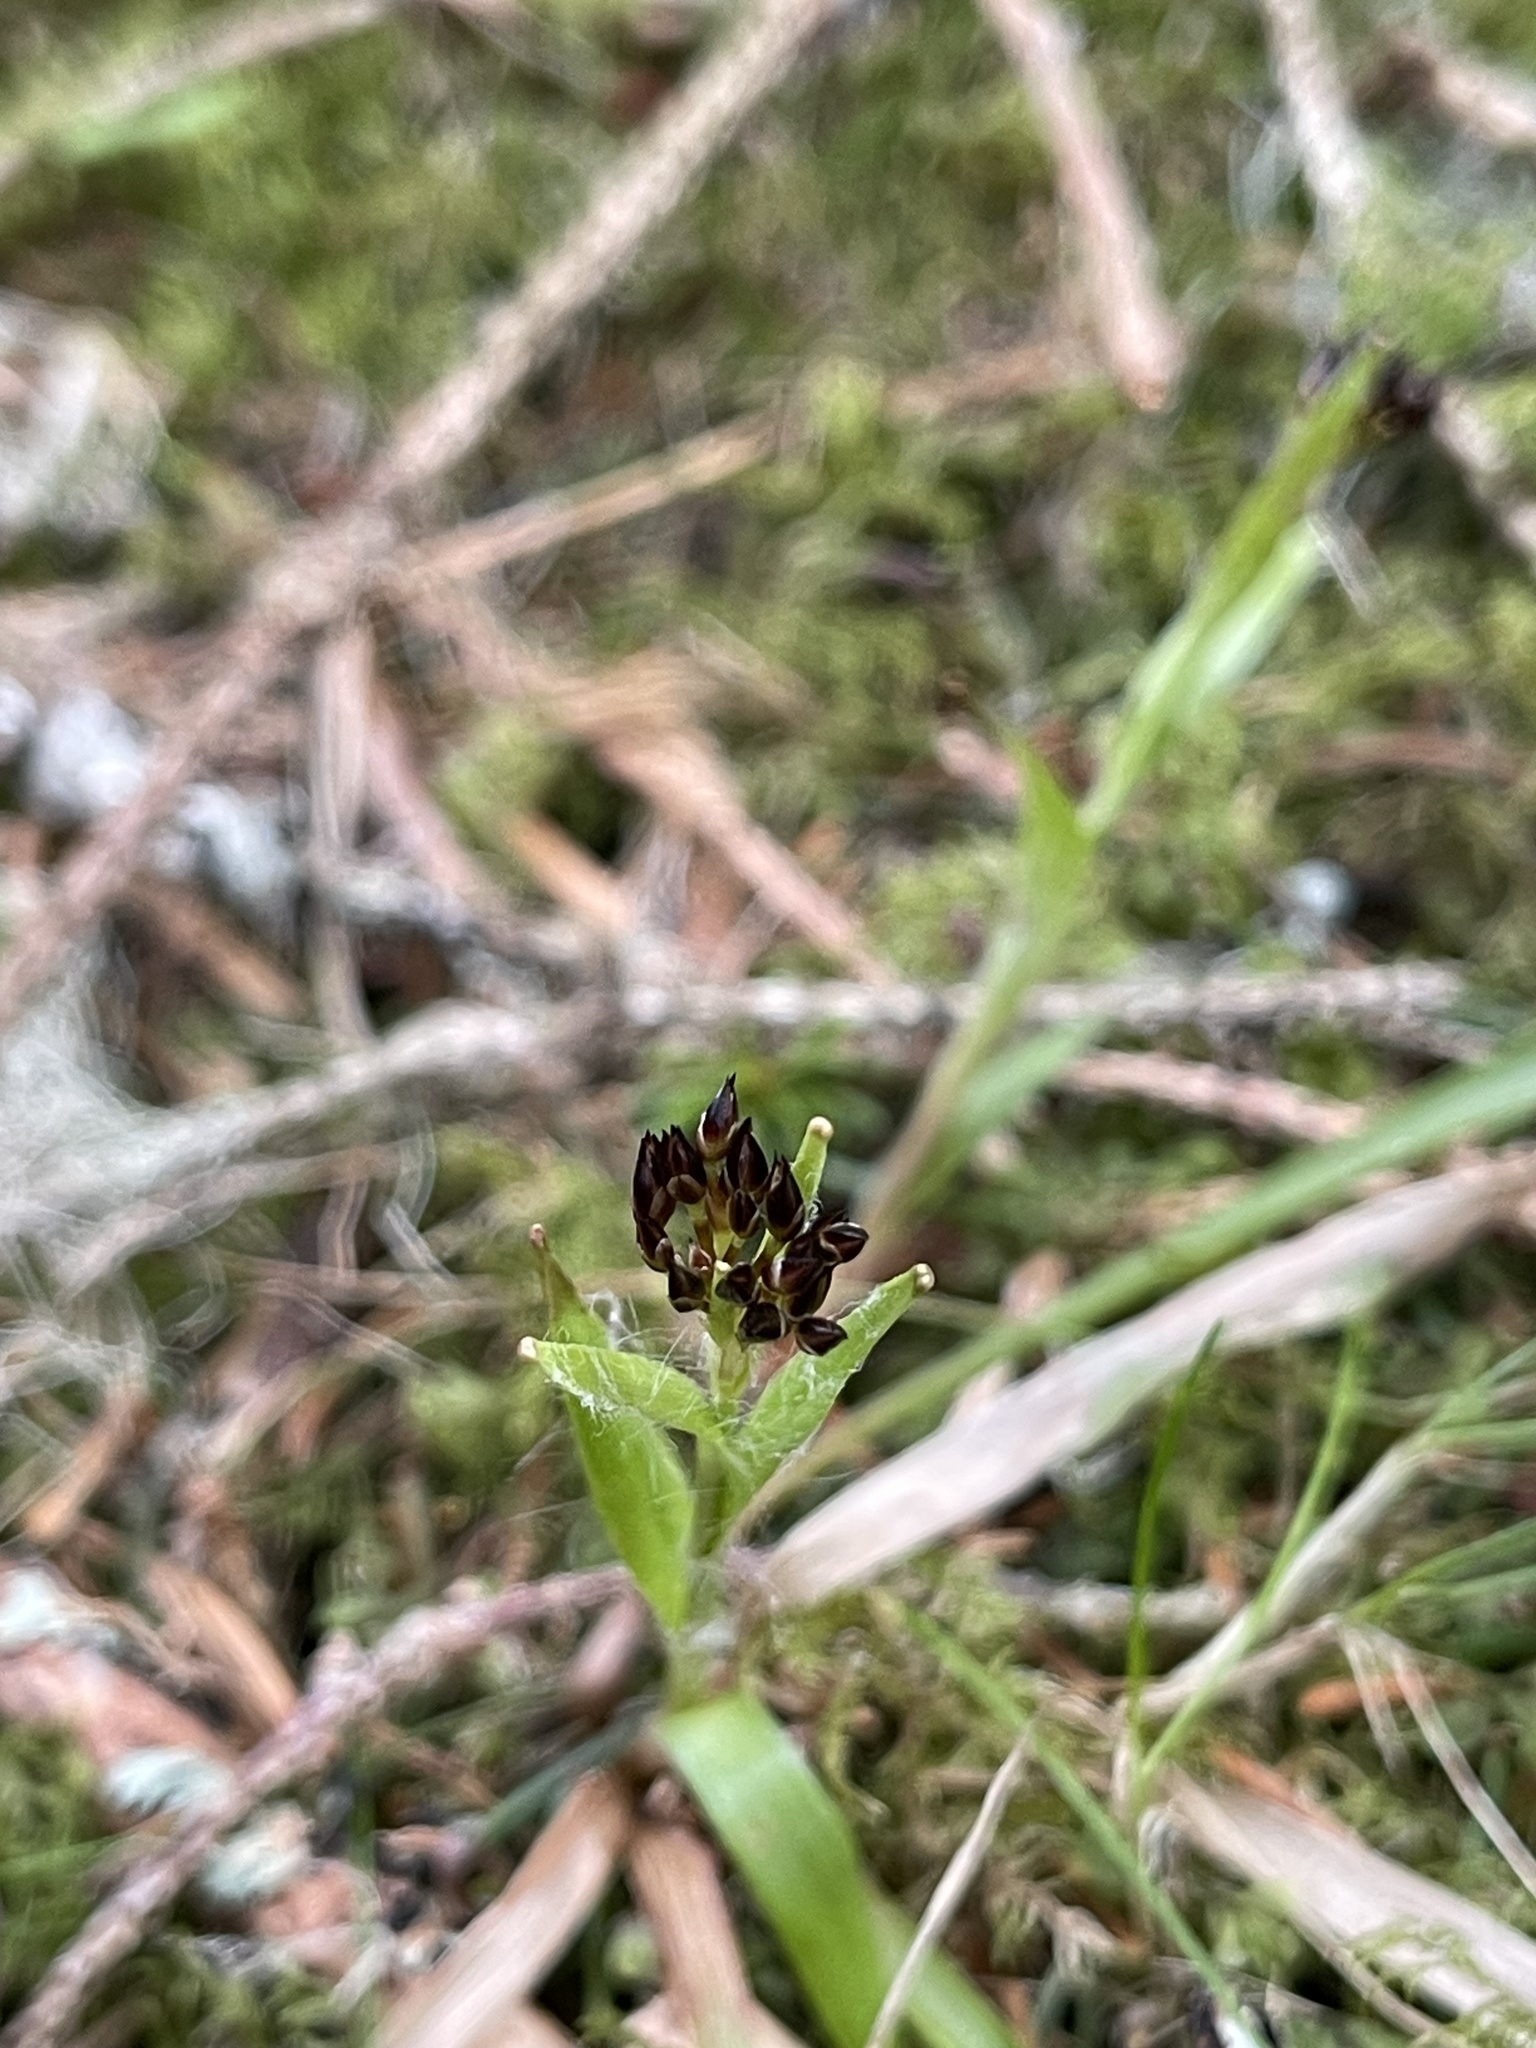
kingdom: Plantae
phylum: Tracheophyta
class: Liliopsida
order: Poales
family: Juncaceae
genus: Luzula
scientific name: Luzula pilosa
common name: Hairy wood-rush
